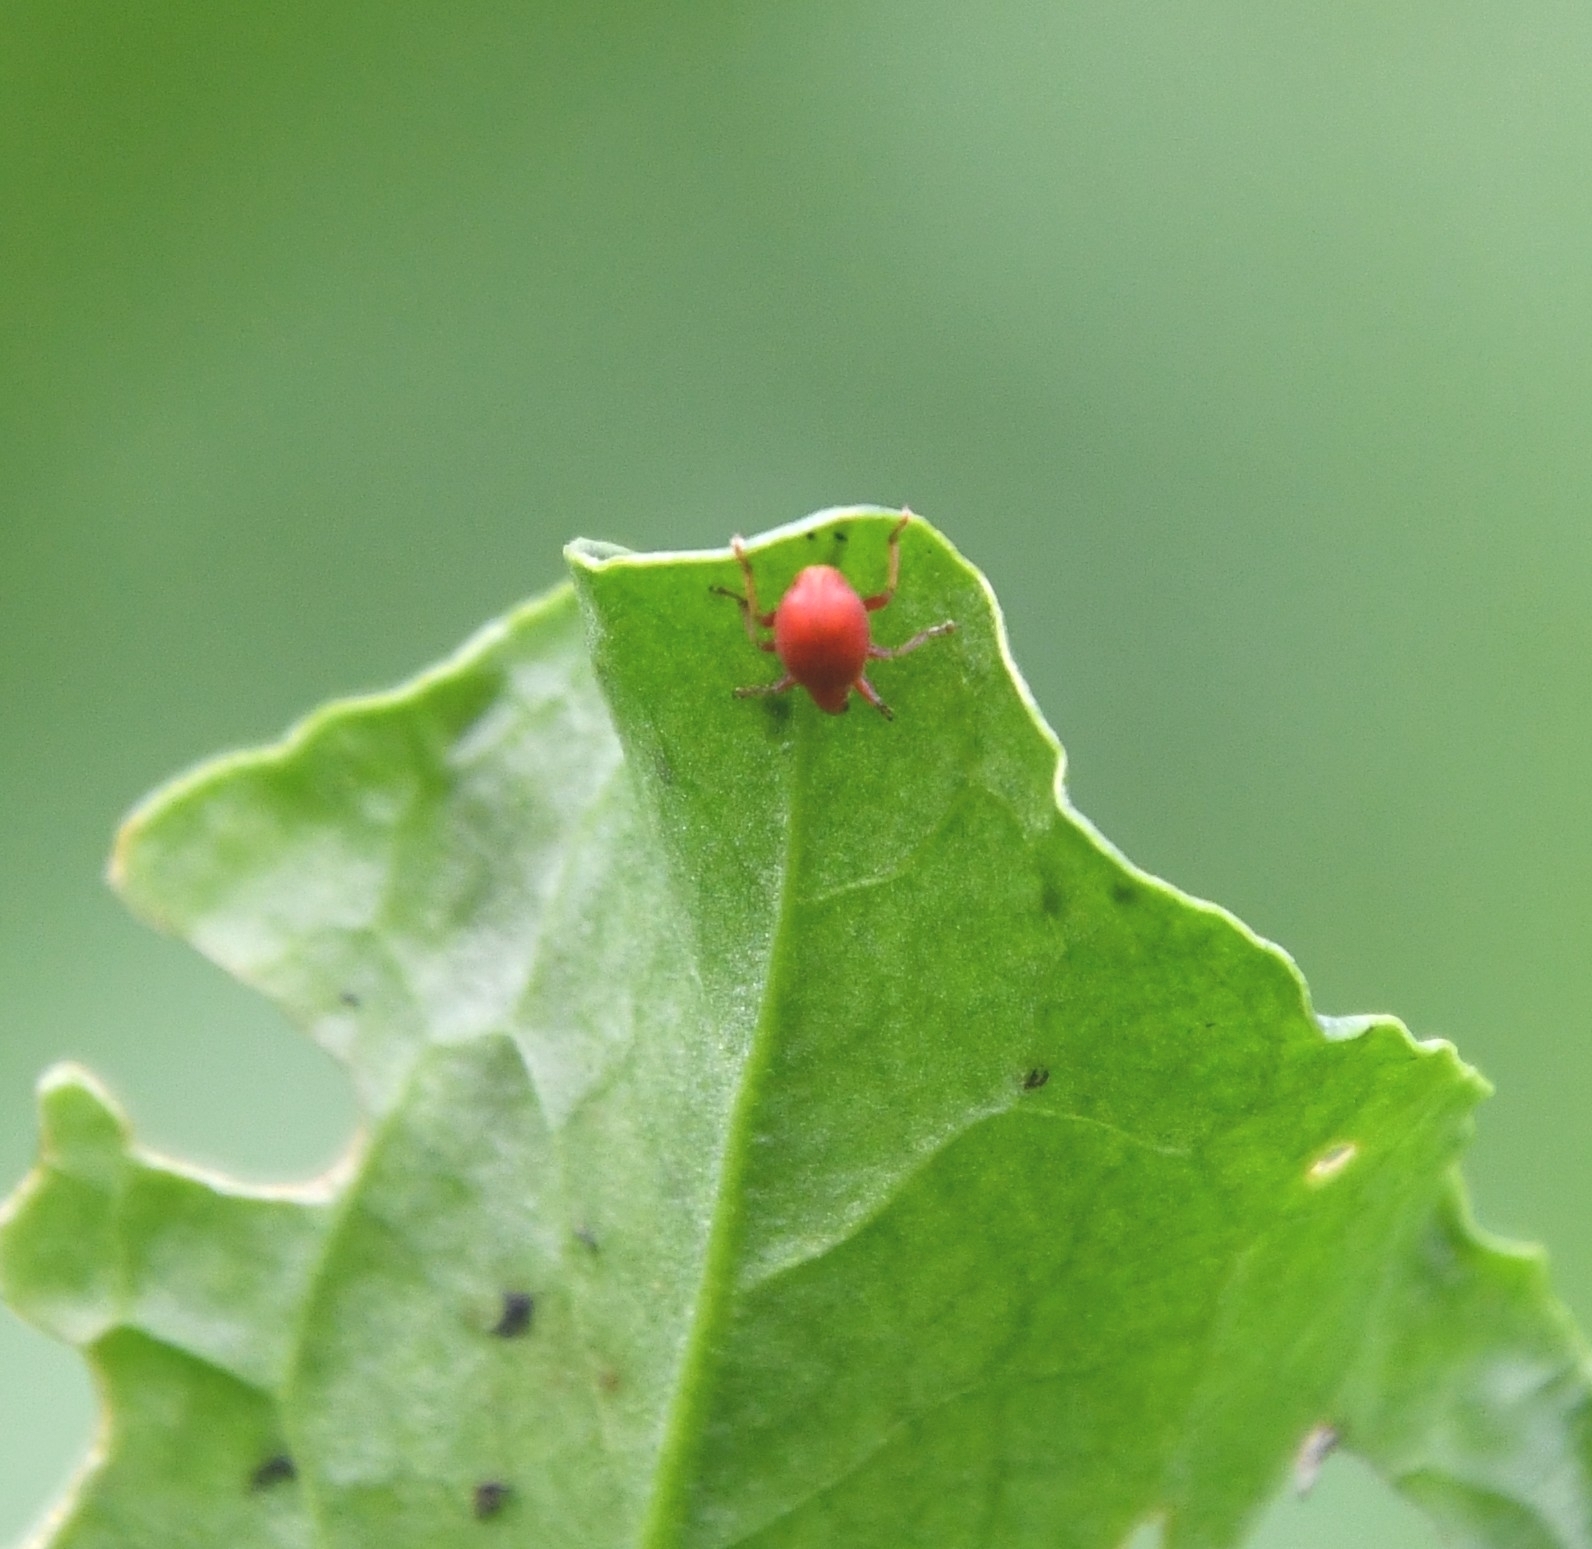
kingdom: Animalia
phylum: Arthropoda
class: Insecta
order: Coleoptera
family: Apionidae
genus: Apion
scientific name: Apion frumentarium
